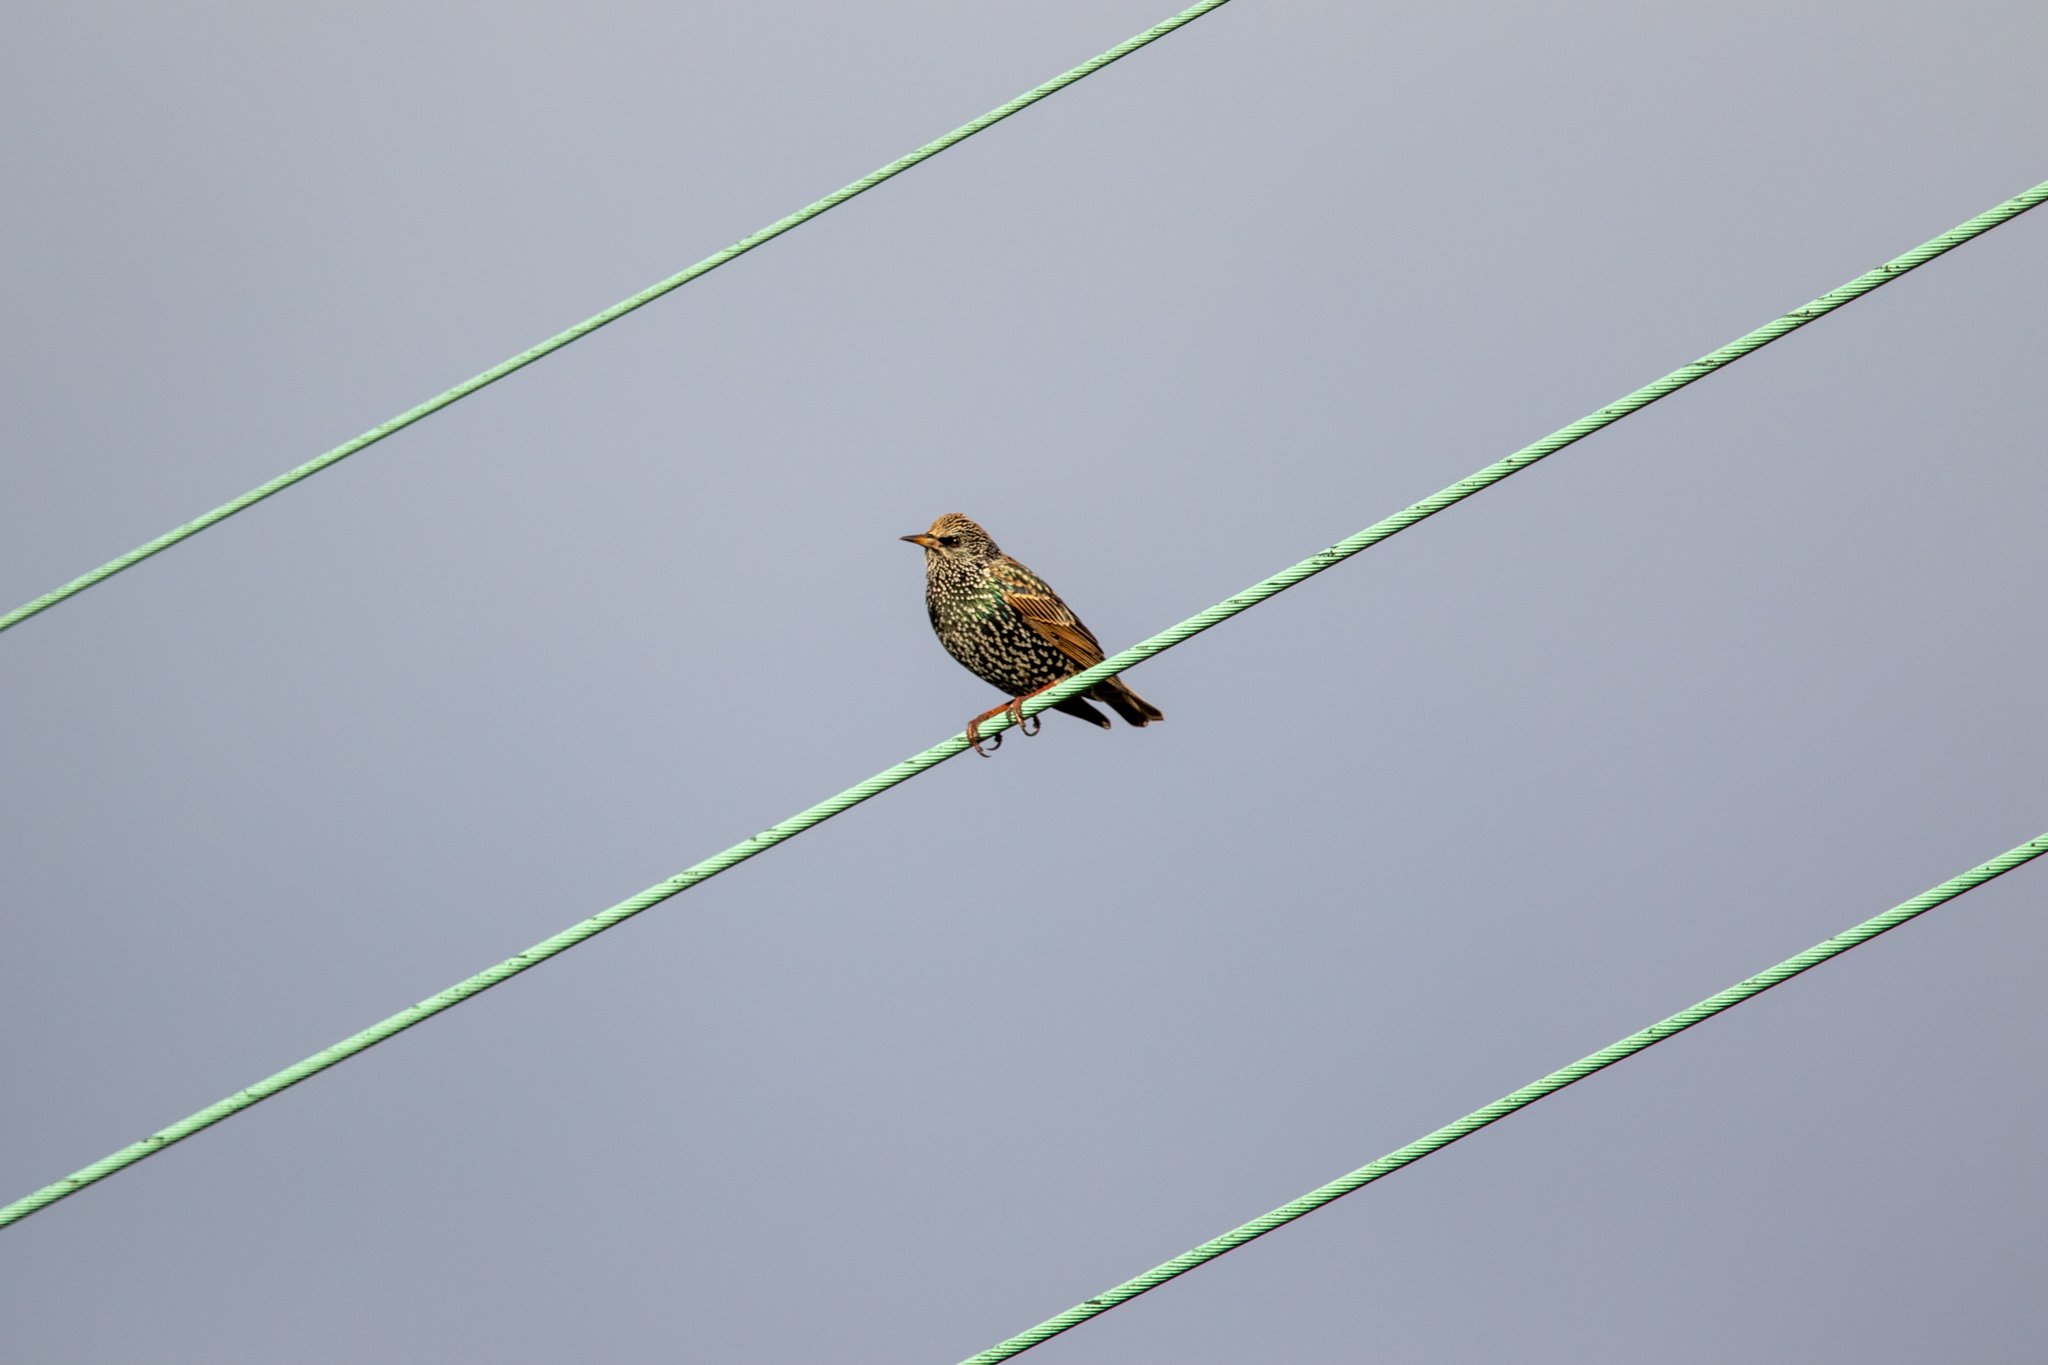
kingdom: Animalia
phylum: Chordata
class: Aves
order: Passeriformes
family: Sturnidae
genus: Sturnus
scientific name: Sturnus vulgaris
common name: Common starling
